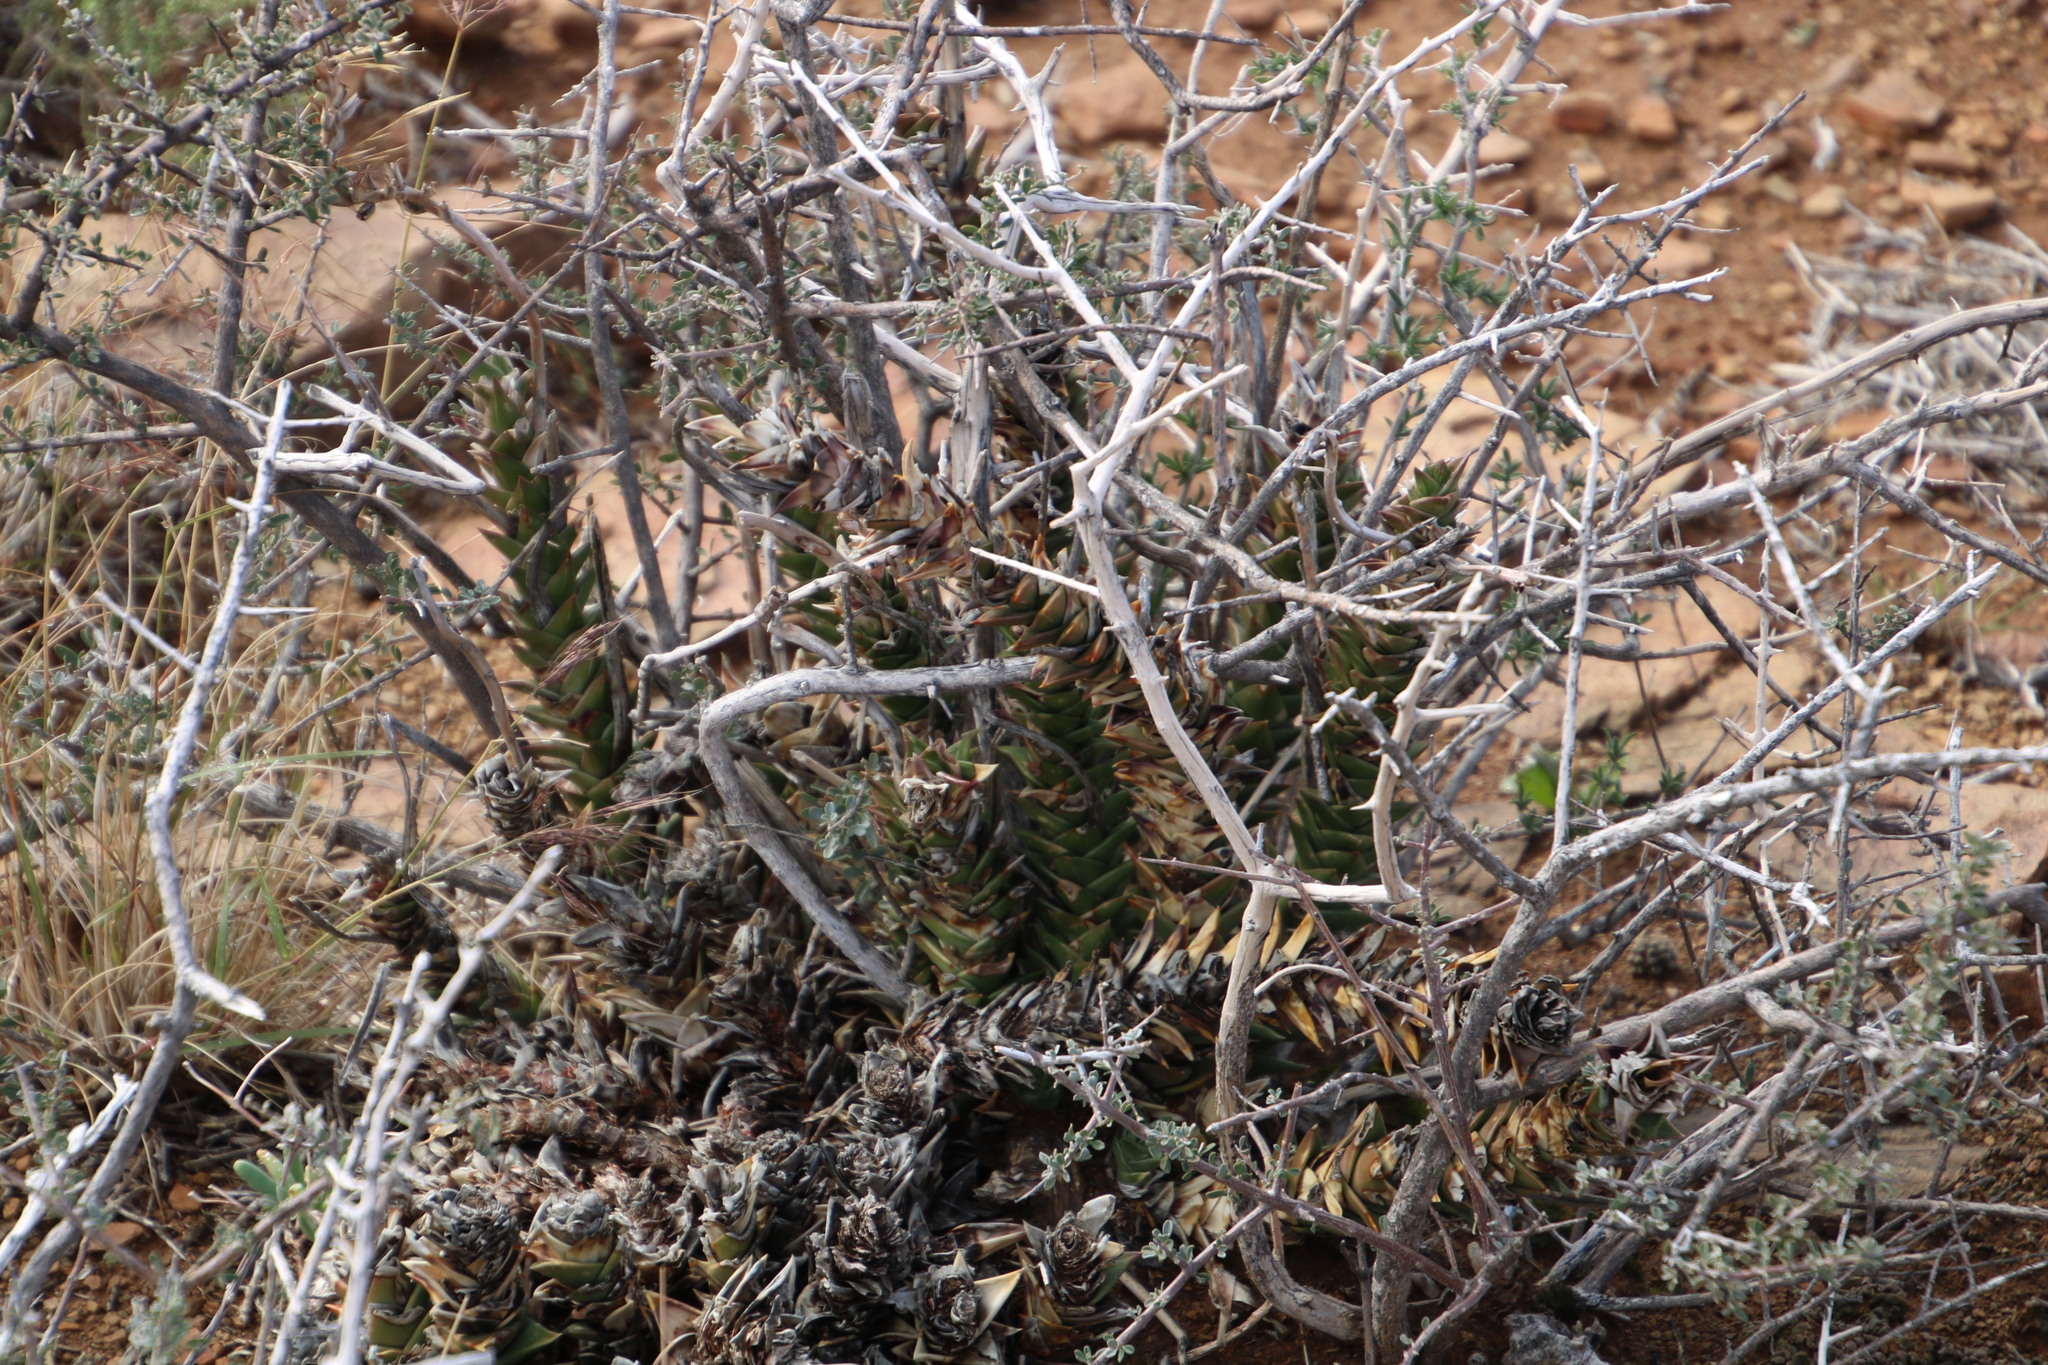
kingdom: Plantae
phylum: Tracheophyta
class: Liliopsida
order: Asparagales
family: Asphodelaceae
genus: Astroloba
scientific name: Astroloba robusta
